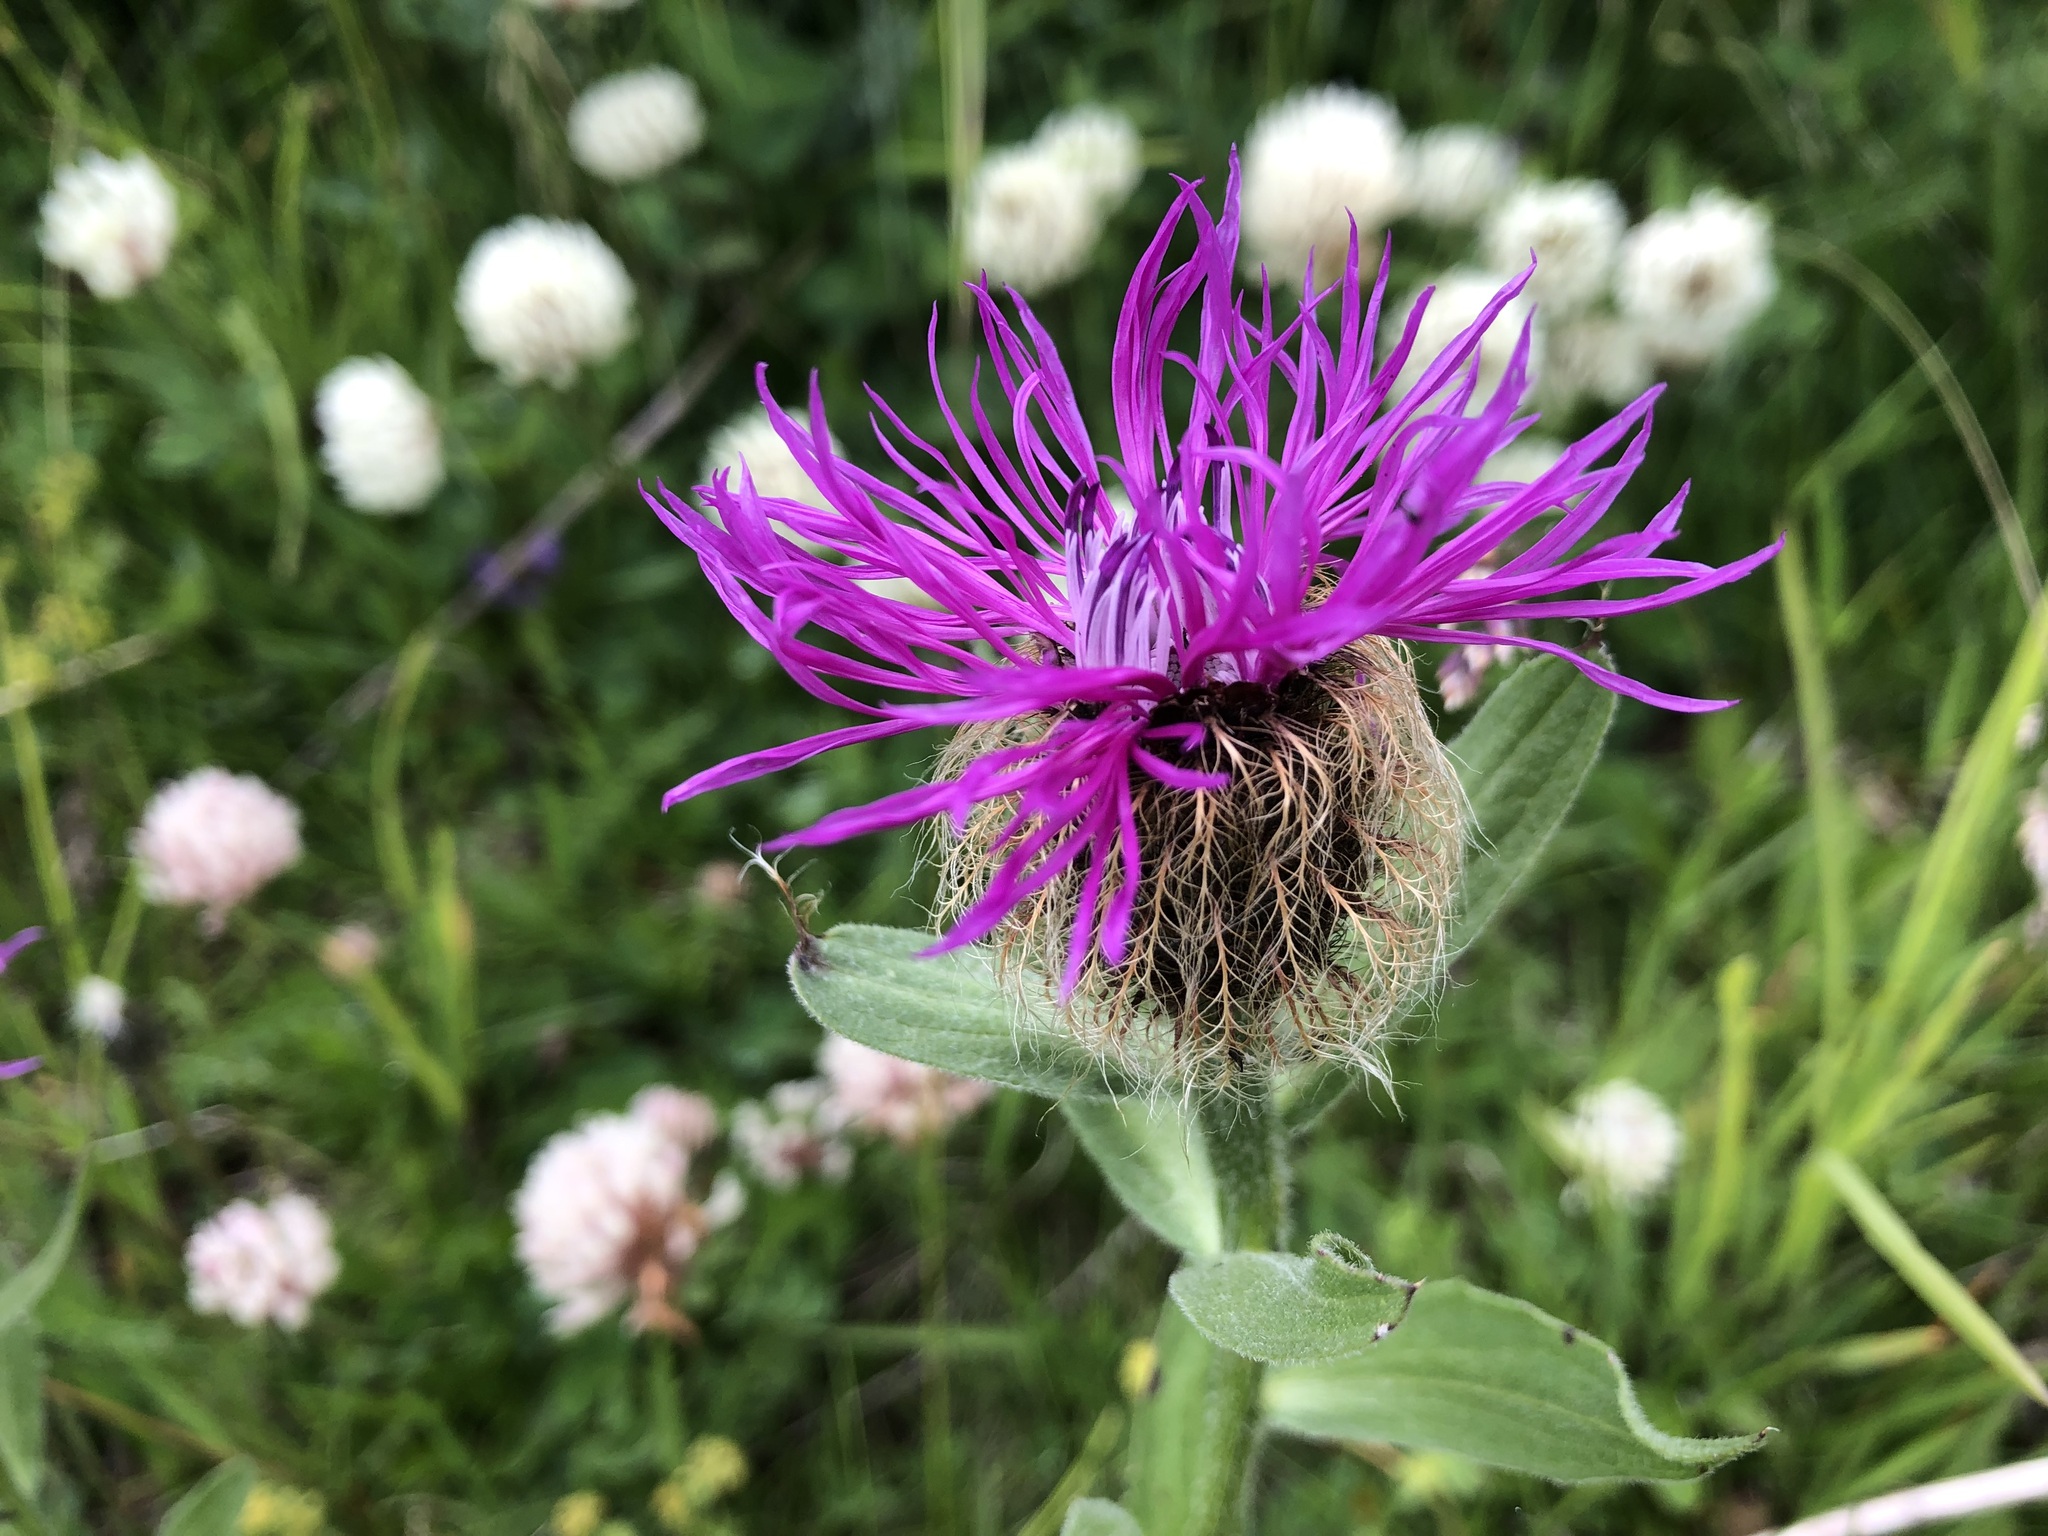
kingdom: Plantae
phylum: Tracheophyta
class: Magnoliopsida
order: Asterales
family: Asteraceae
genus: Centaurea
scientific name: Centaurea nervosa
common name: Singleflower knapweed
